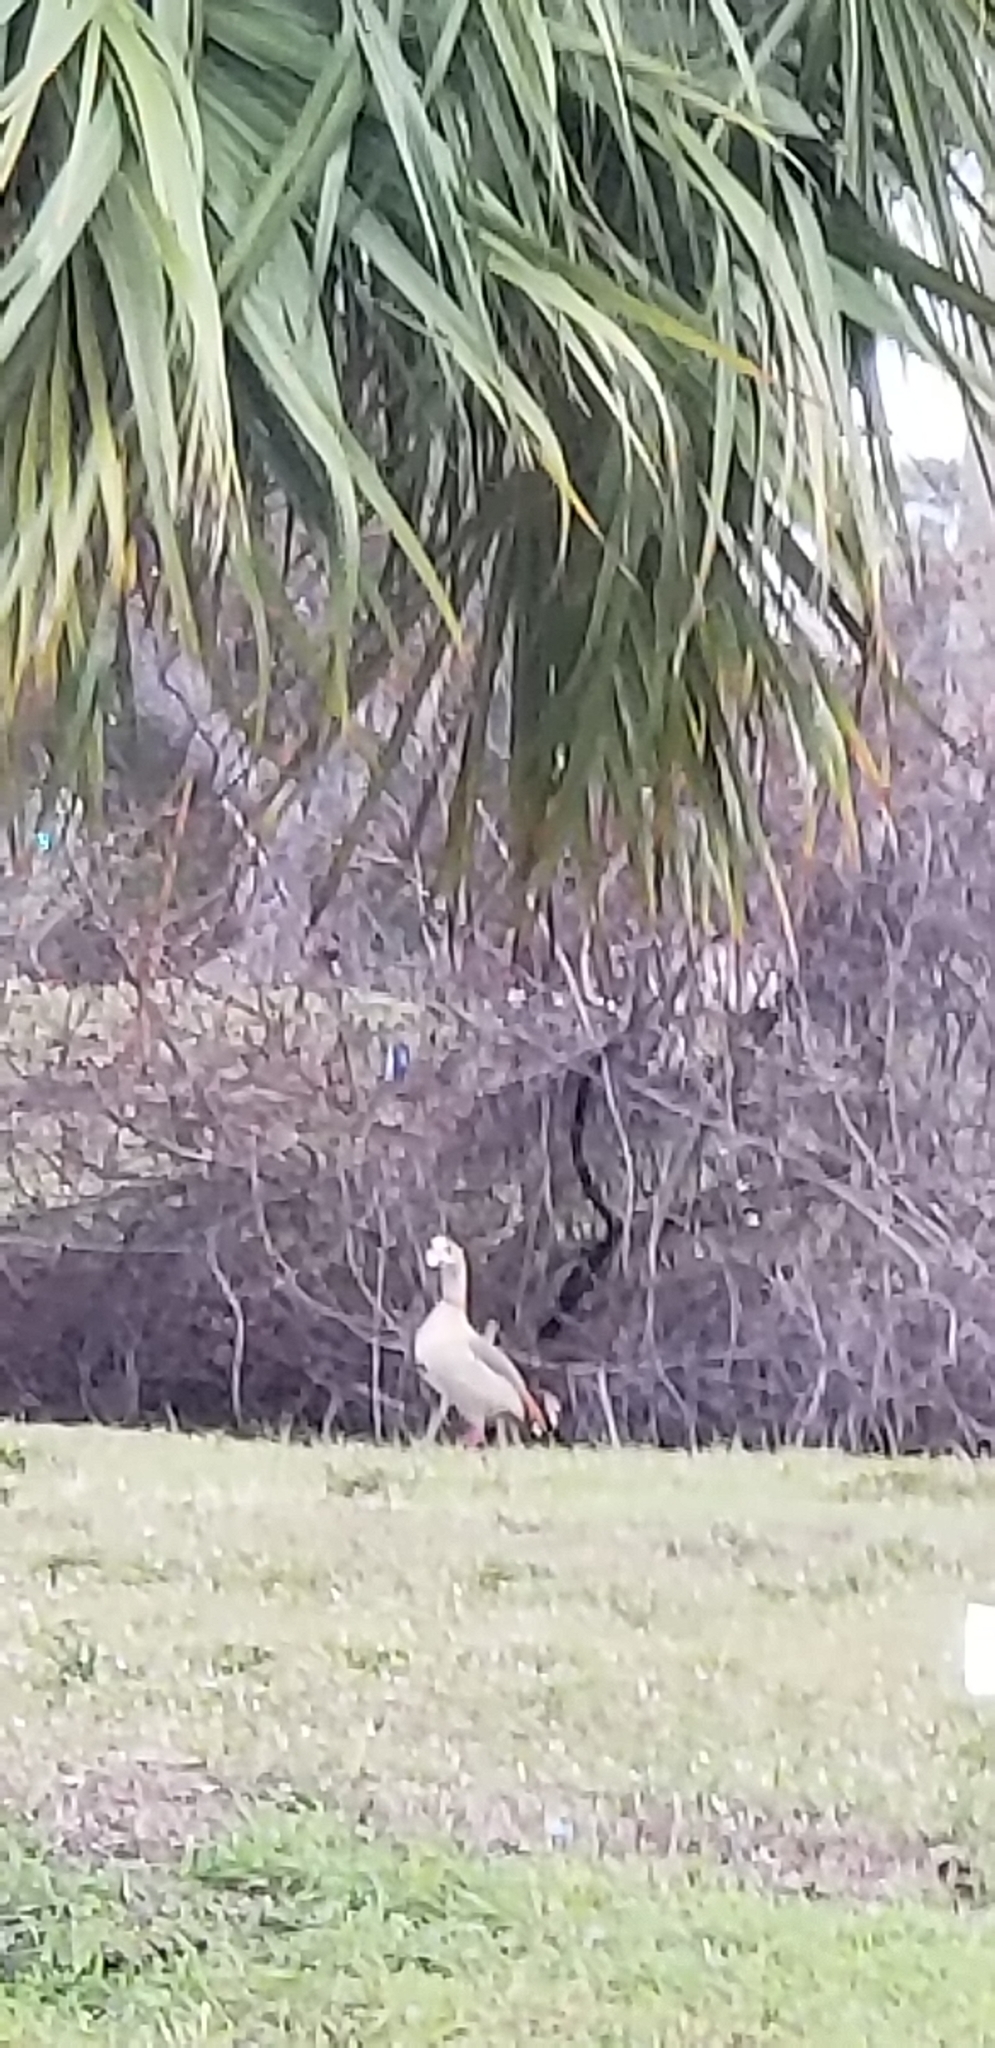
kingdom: Animalia
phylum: Chordata
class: Aves
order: Anseriformes
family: Anatidae
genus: Alopochen
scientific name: Alopochen aegyptiaca
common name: Egyptian goose
